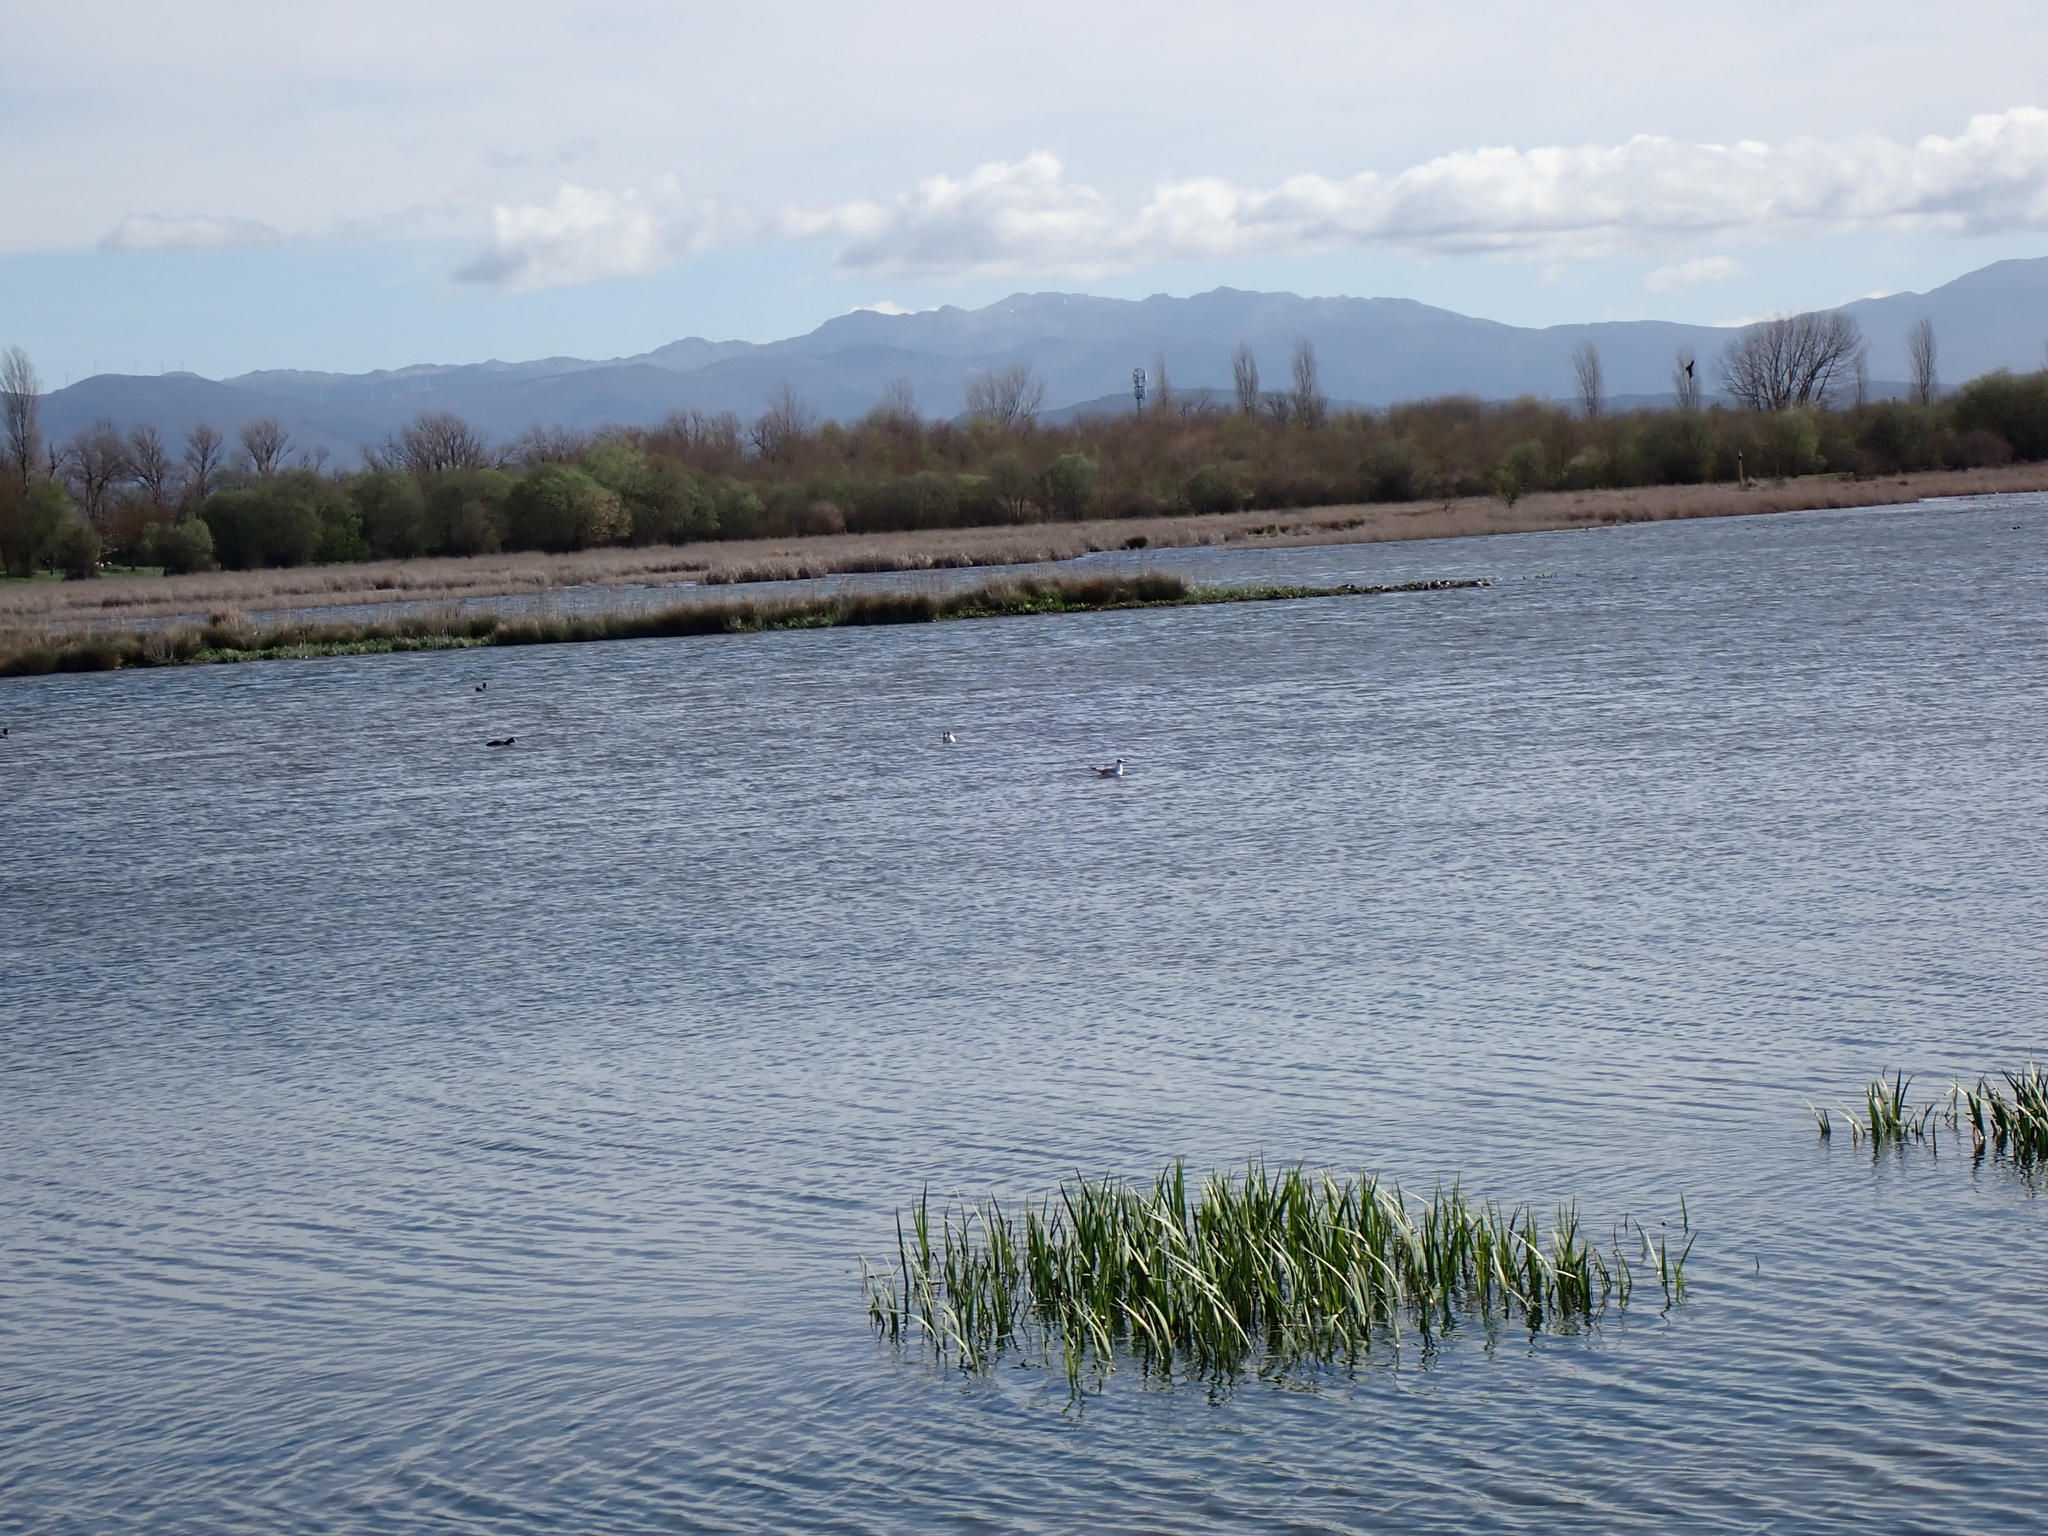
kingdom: Animalia
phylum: Chordata
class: Aves
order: Charadriiformes
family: Laridae
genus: Chroicocephalus
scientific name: Chroicocephalus ridibundus
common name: Black-headed gull
